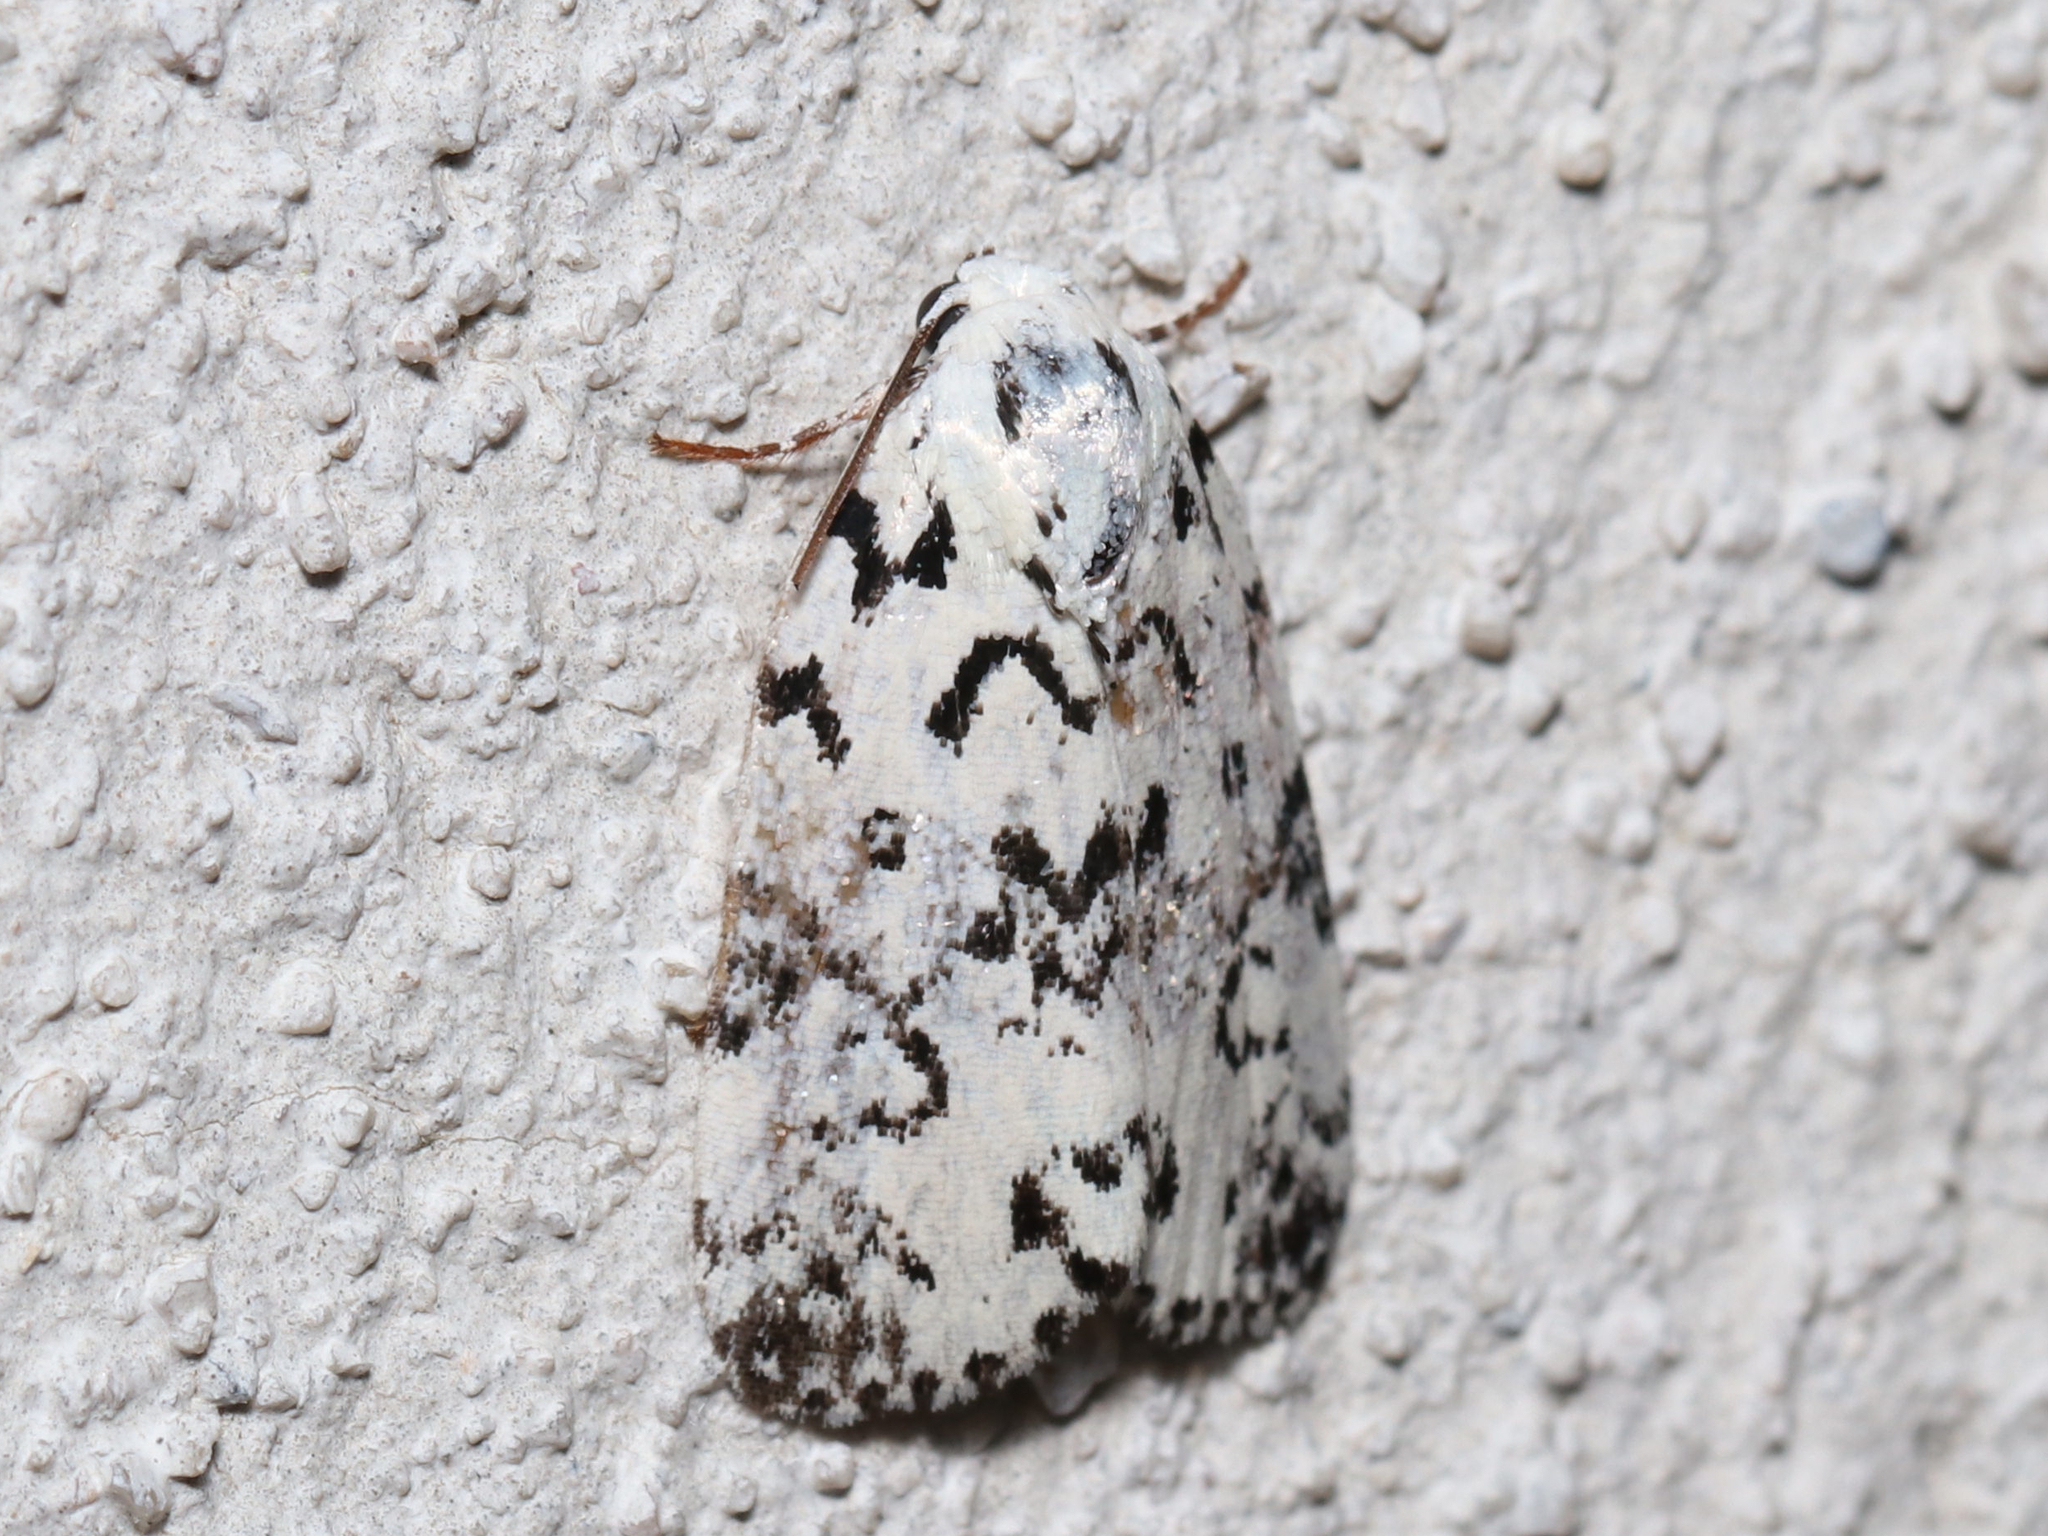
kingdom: Animalia
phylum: Arthropoda
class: Insecta
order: Lepidoptera
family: Noctuidae
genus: Polygrammate
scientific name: Polygrammate hebraeicum
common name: Hebrew moth
